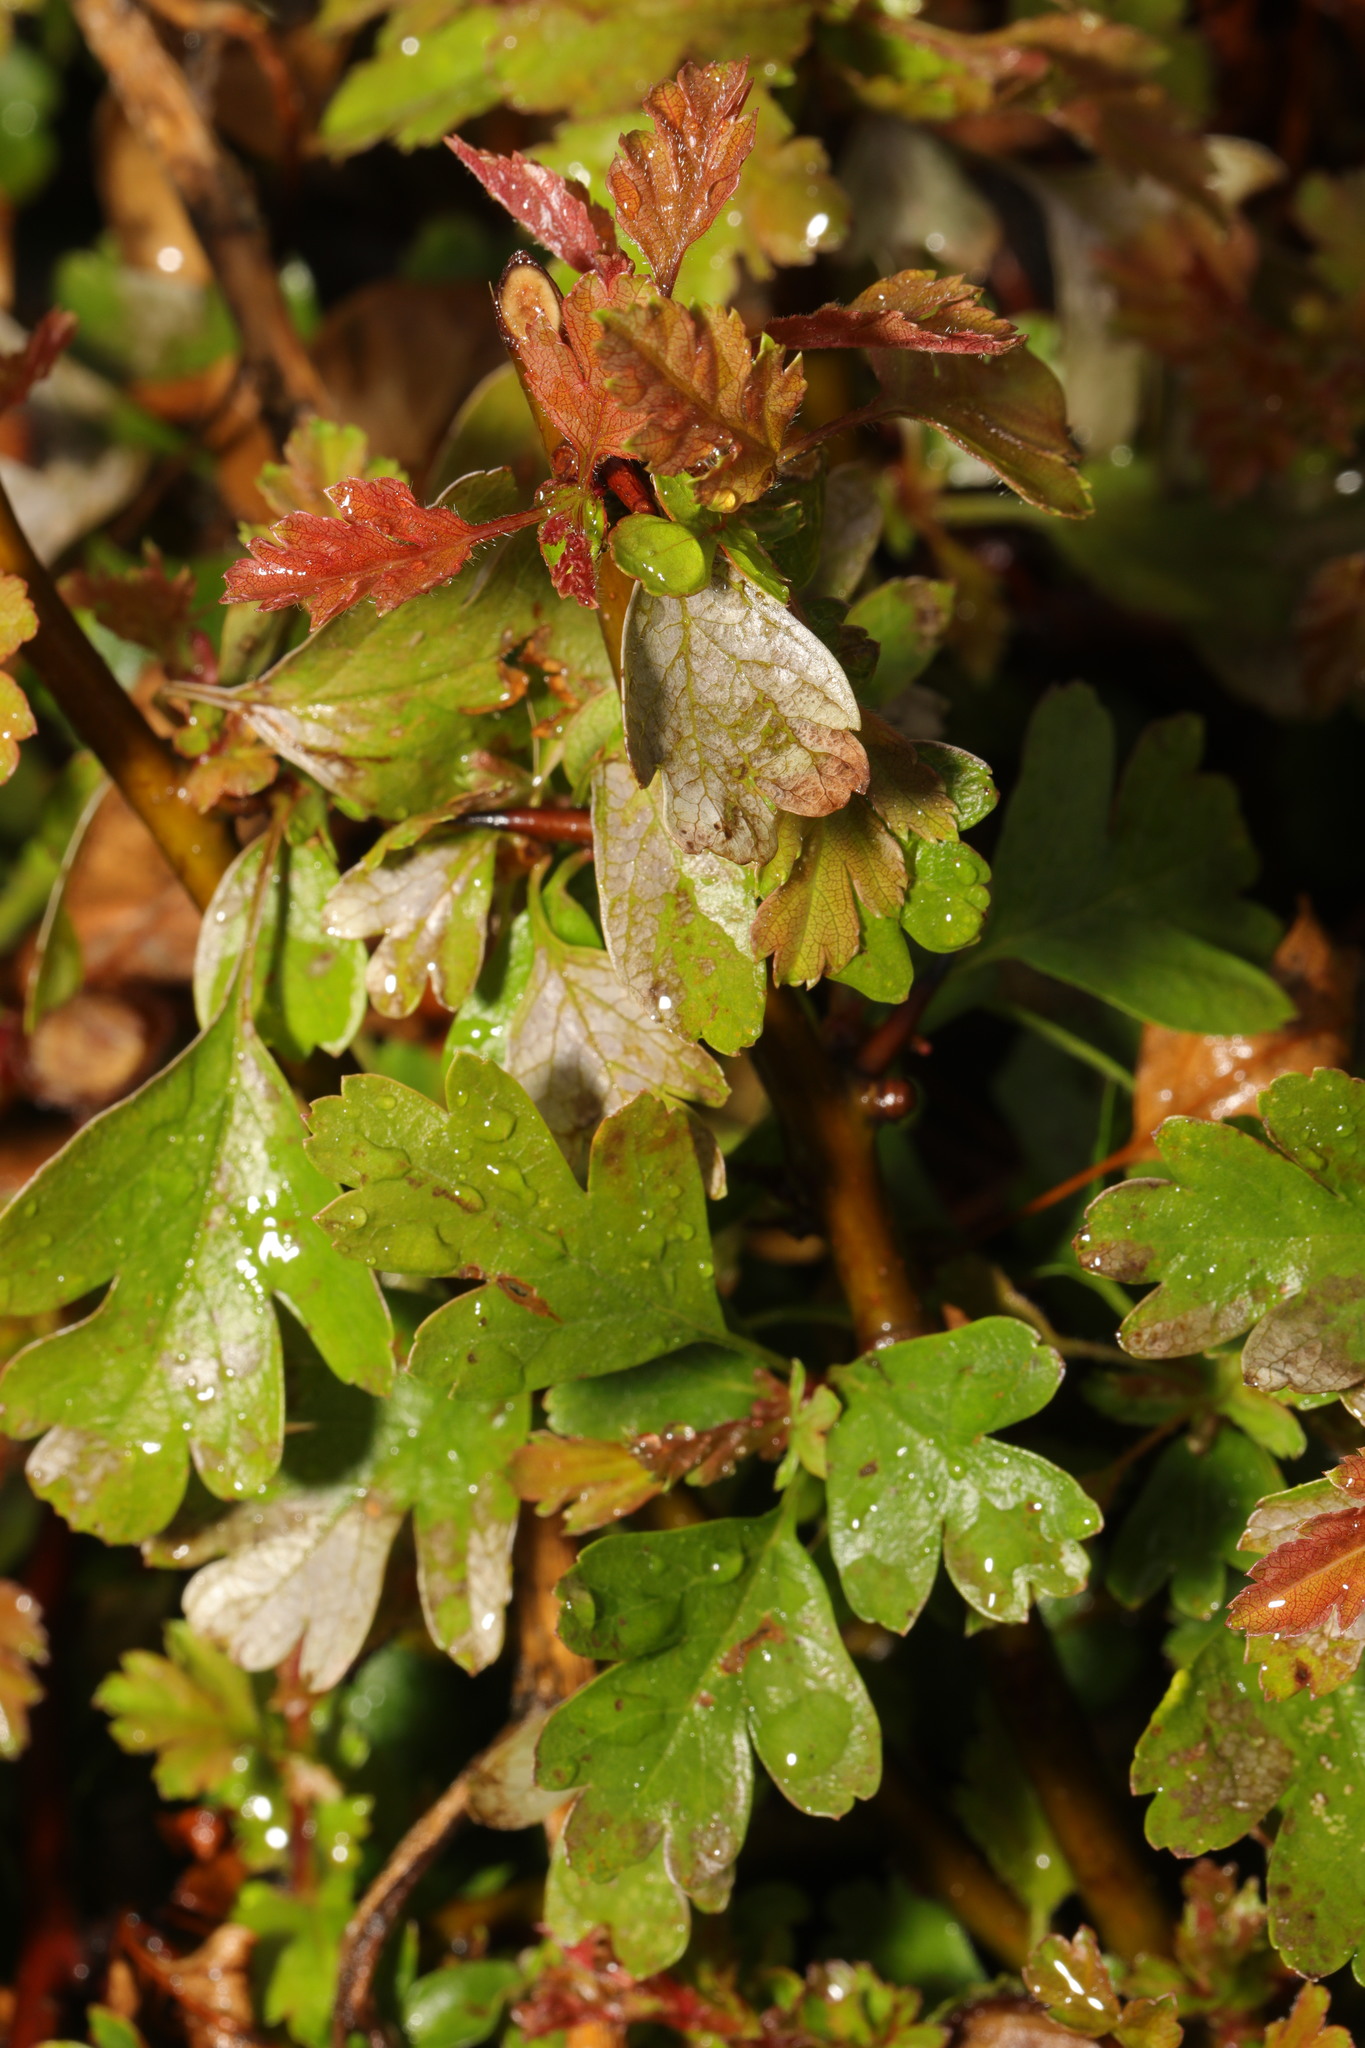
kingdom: Plantae
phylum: Tracheophyta
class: Magnoliopsida
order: Rosales
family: Rosaceae
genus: Crataegus
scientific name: Crataegus monogyna
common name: Hawthorn
